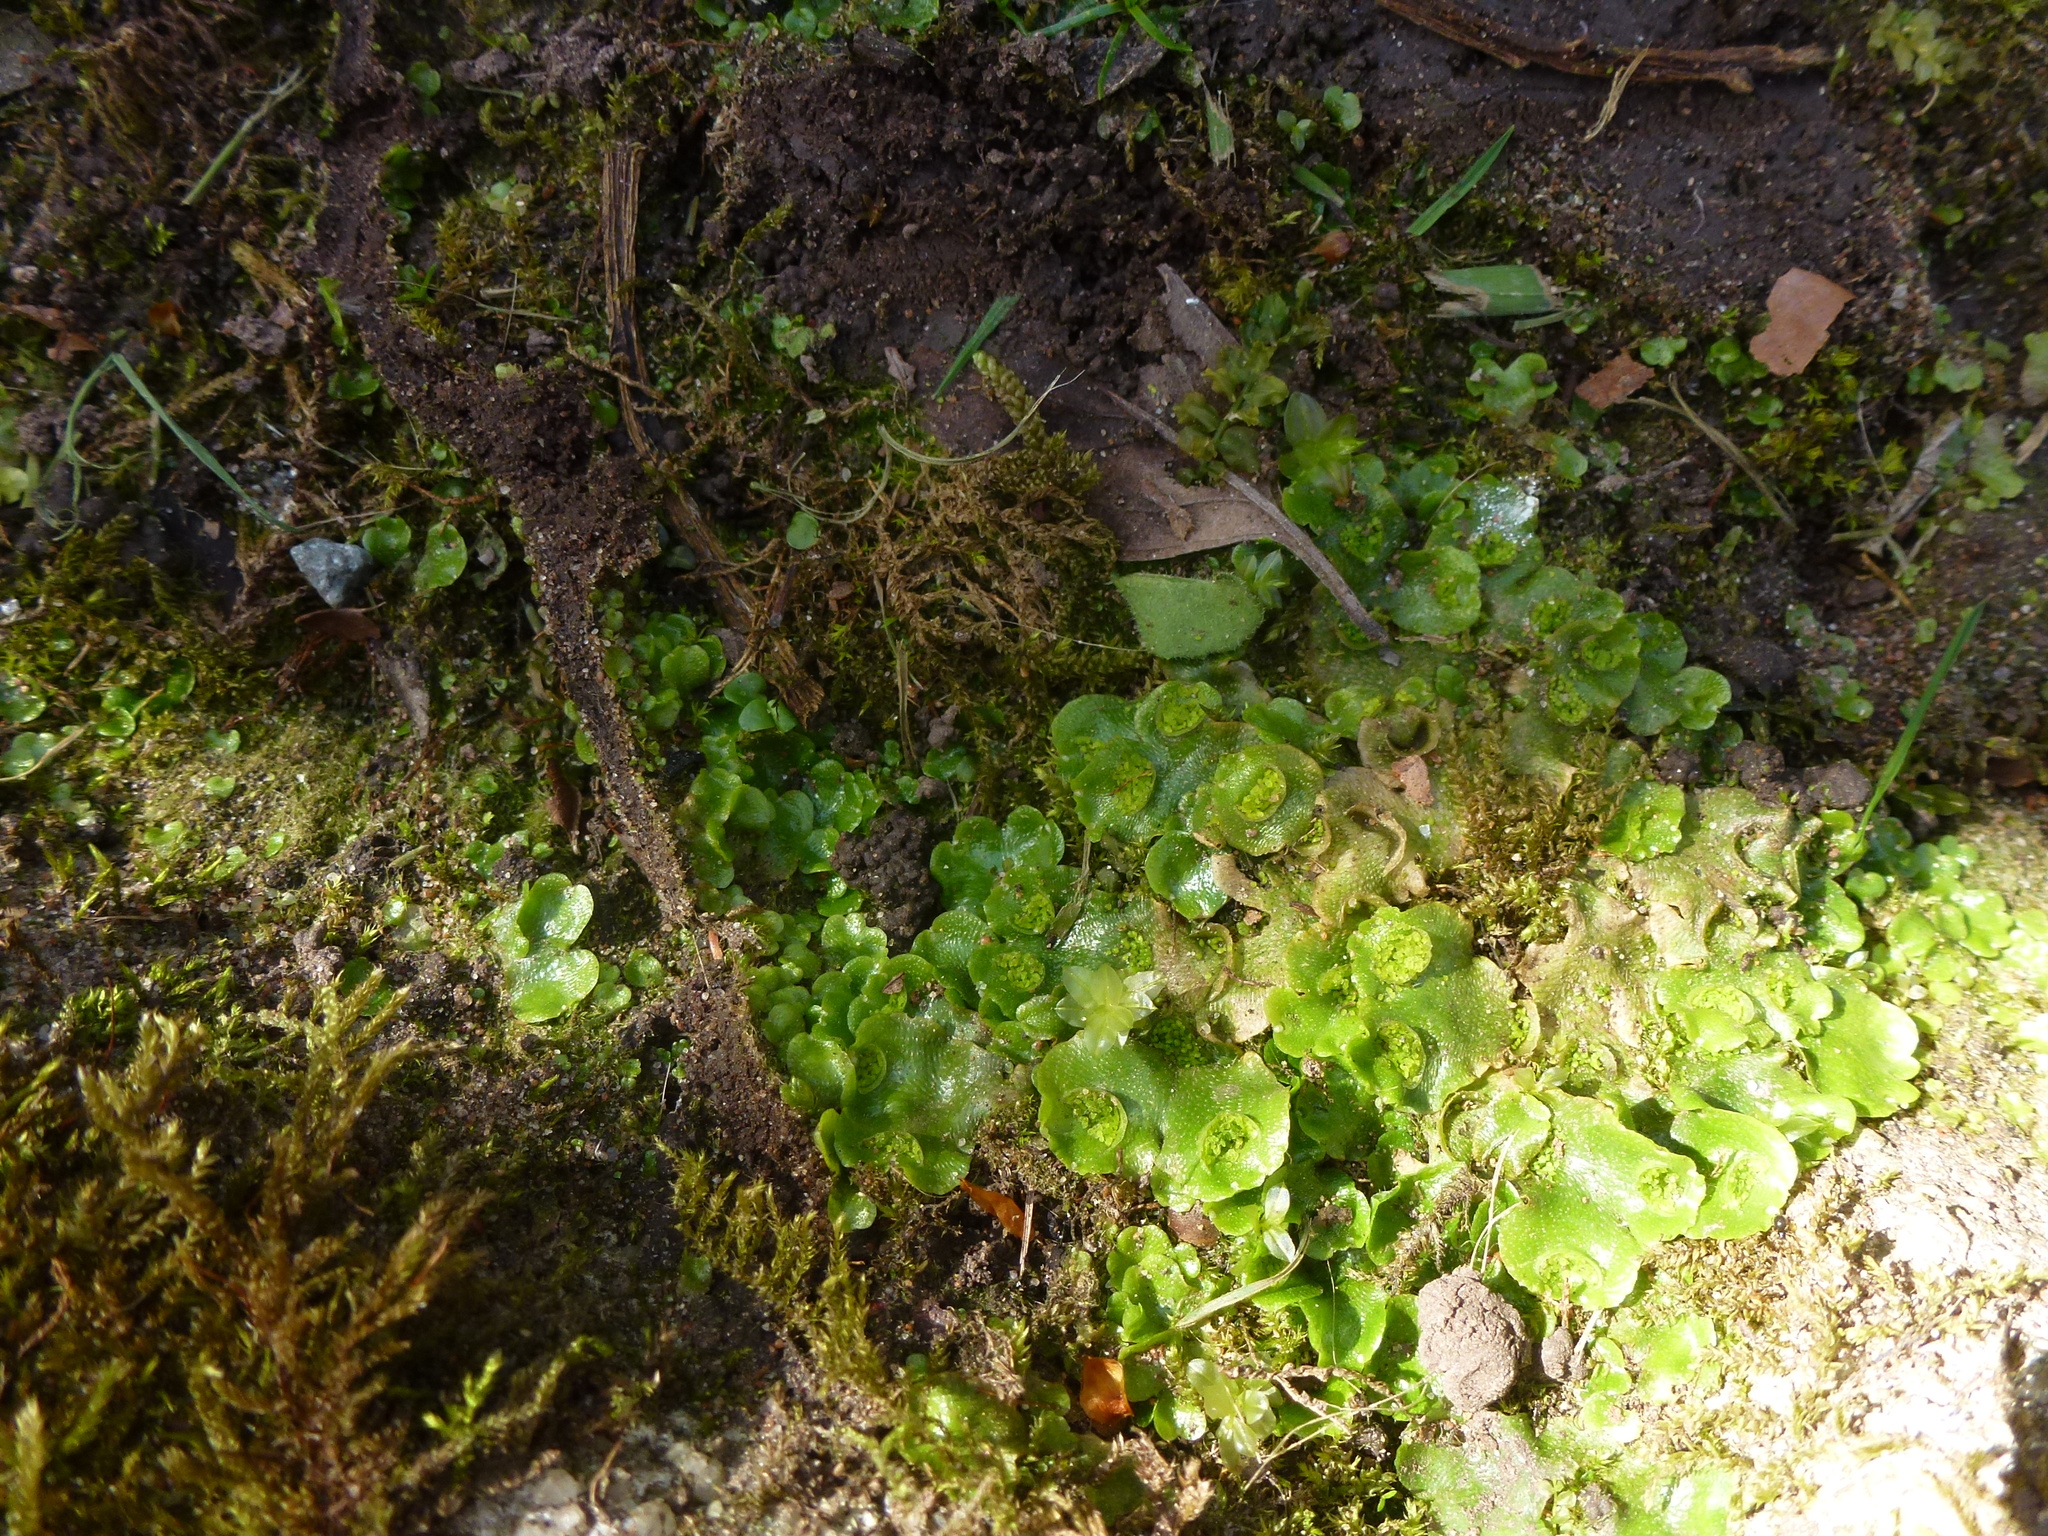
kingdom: Plantae
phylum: Marchantiophyta
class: Marchantiopsida
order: Lunulariales
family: Lunulariaceae
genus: Lunularia
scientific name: Lunularia cruciata
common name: Crescent-cup liverwort
